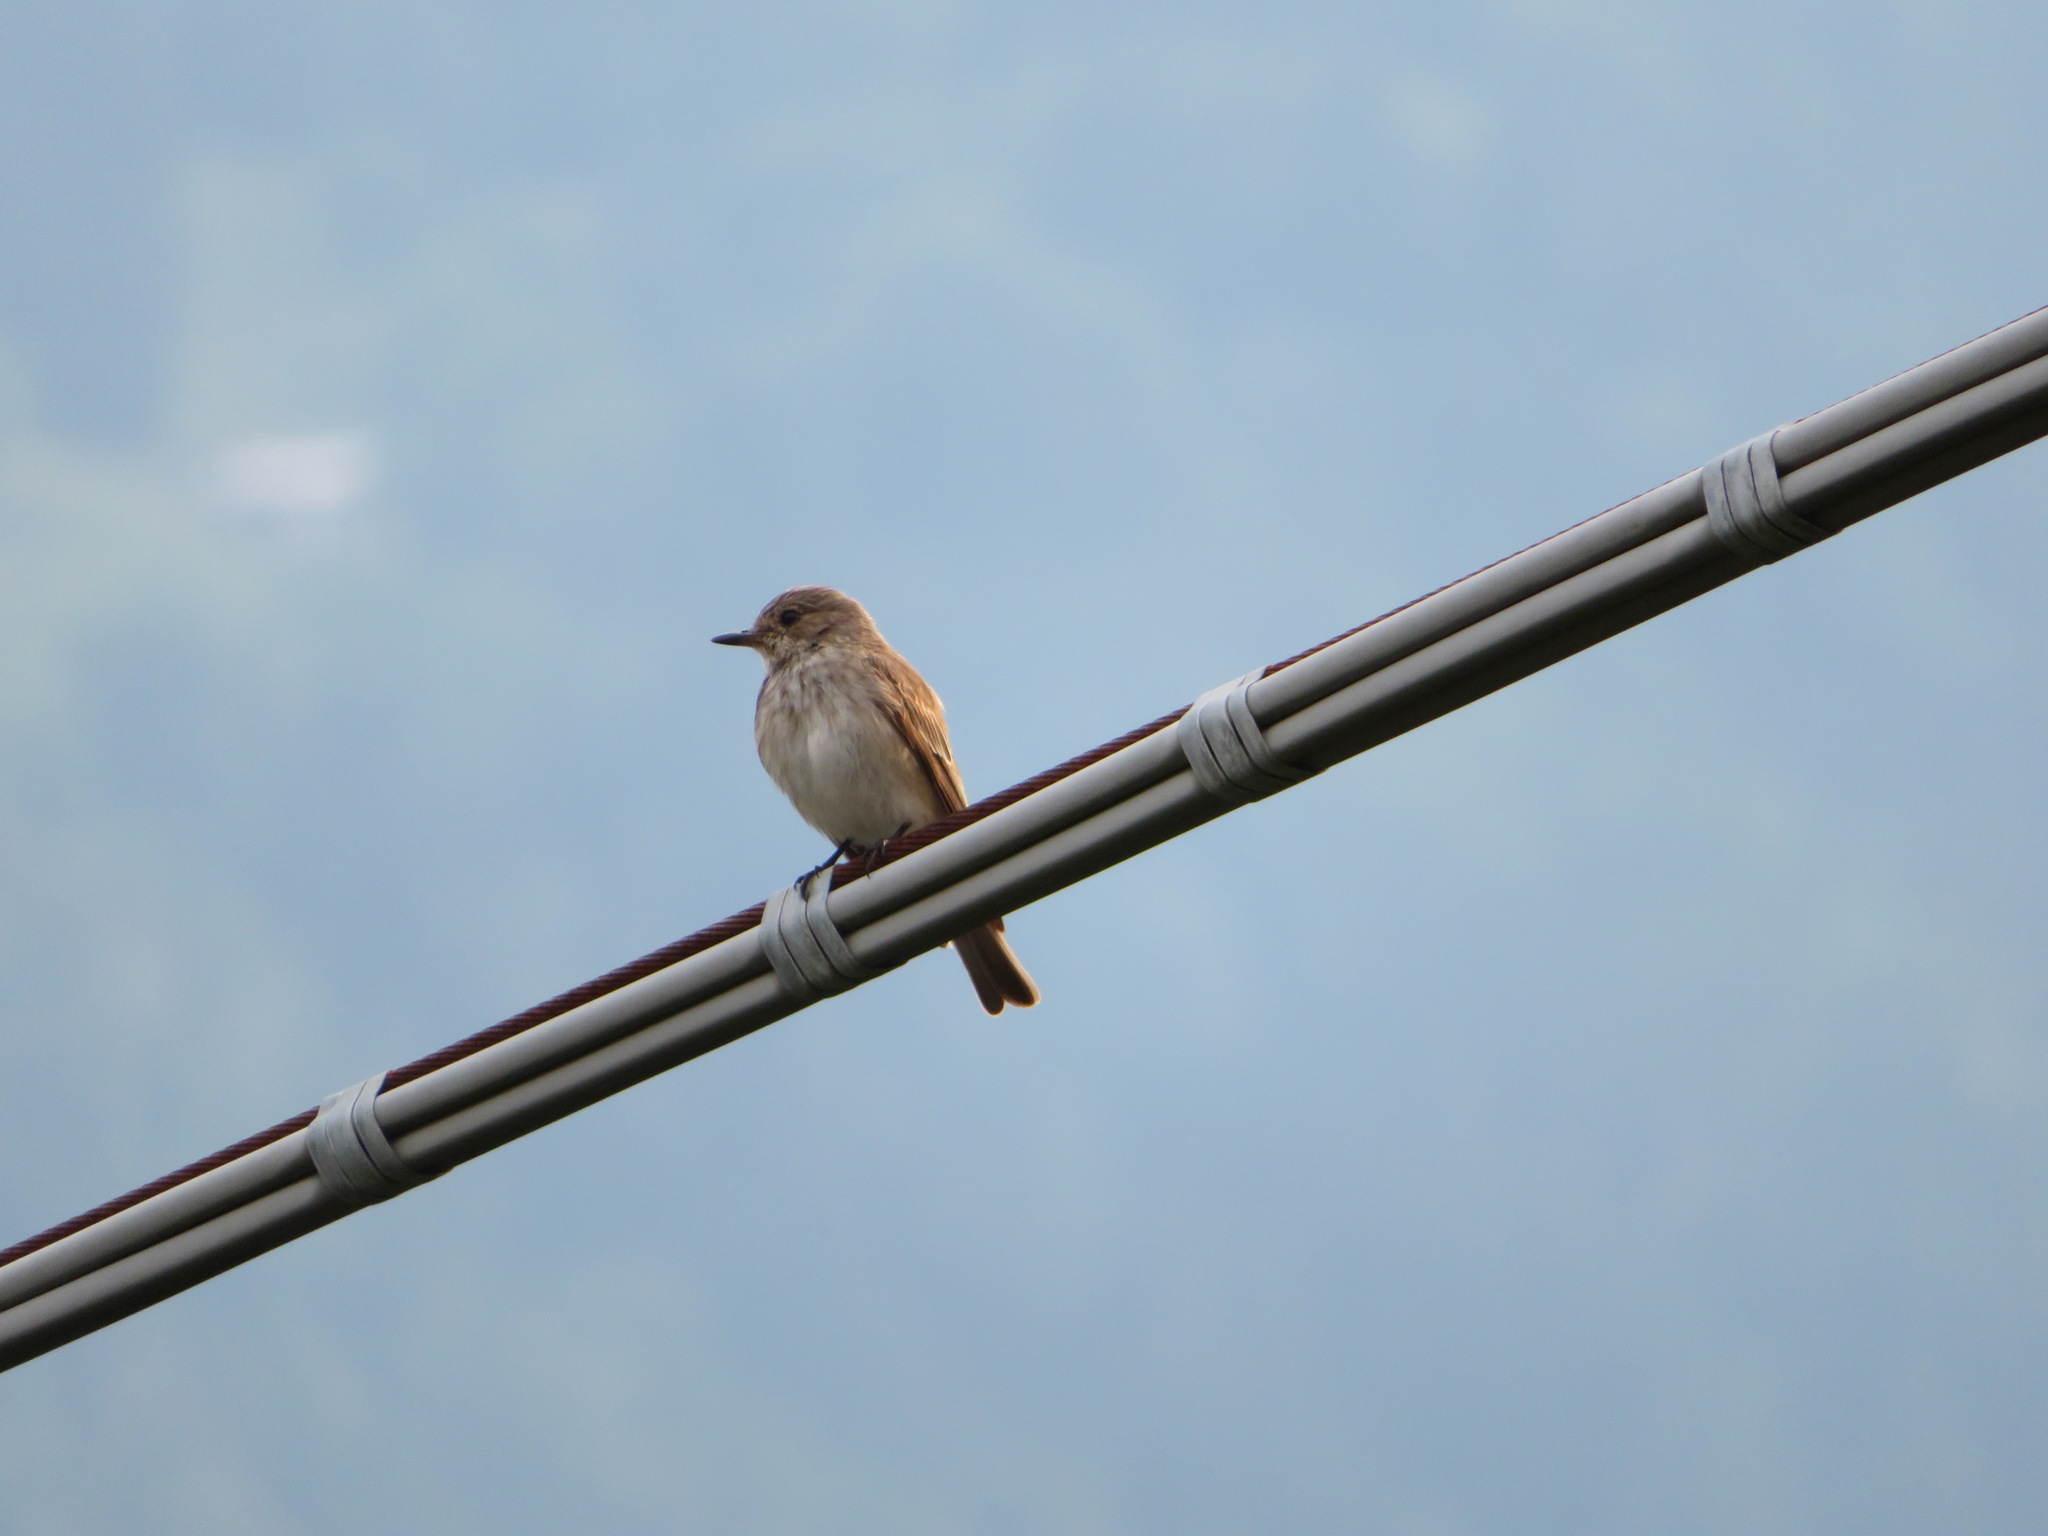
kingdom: Animalia
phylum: Chordata
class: Aves
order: Passeriformes
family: Muscicapidae
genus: Muscicapa
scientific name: Muscicapa striata
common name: Spotted flycatcher
